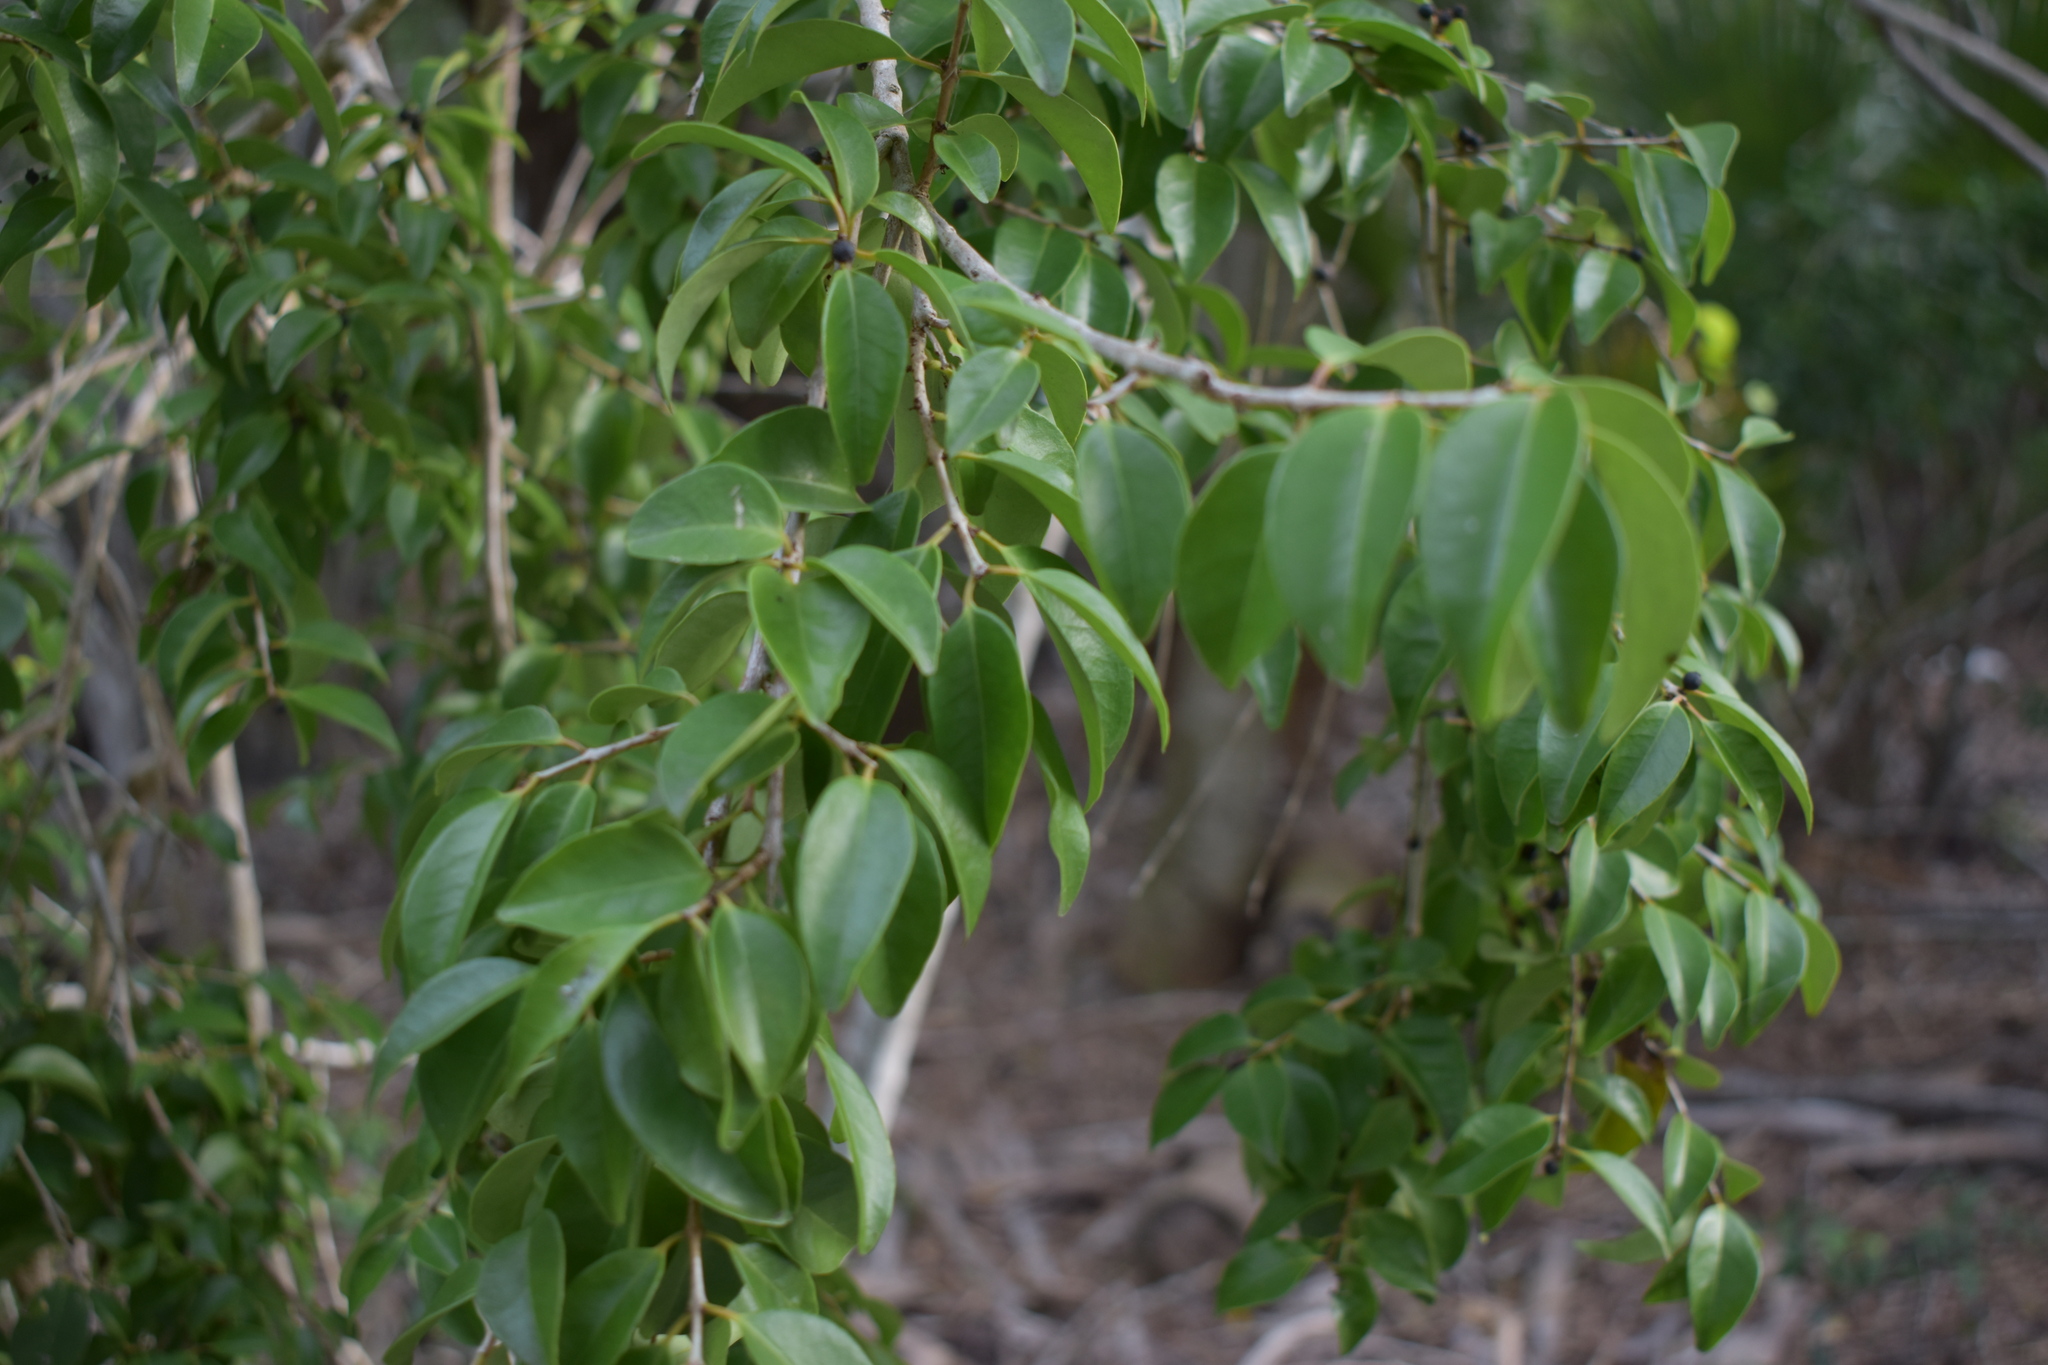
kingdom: Plantae
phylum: Tracheophyta
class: Magnoliopsida
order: Myrtales
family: Myrtaceae
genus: Eugenia
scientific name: Eugenia axillaris
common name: Choaky berry
